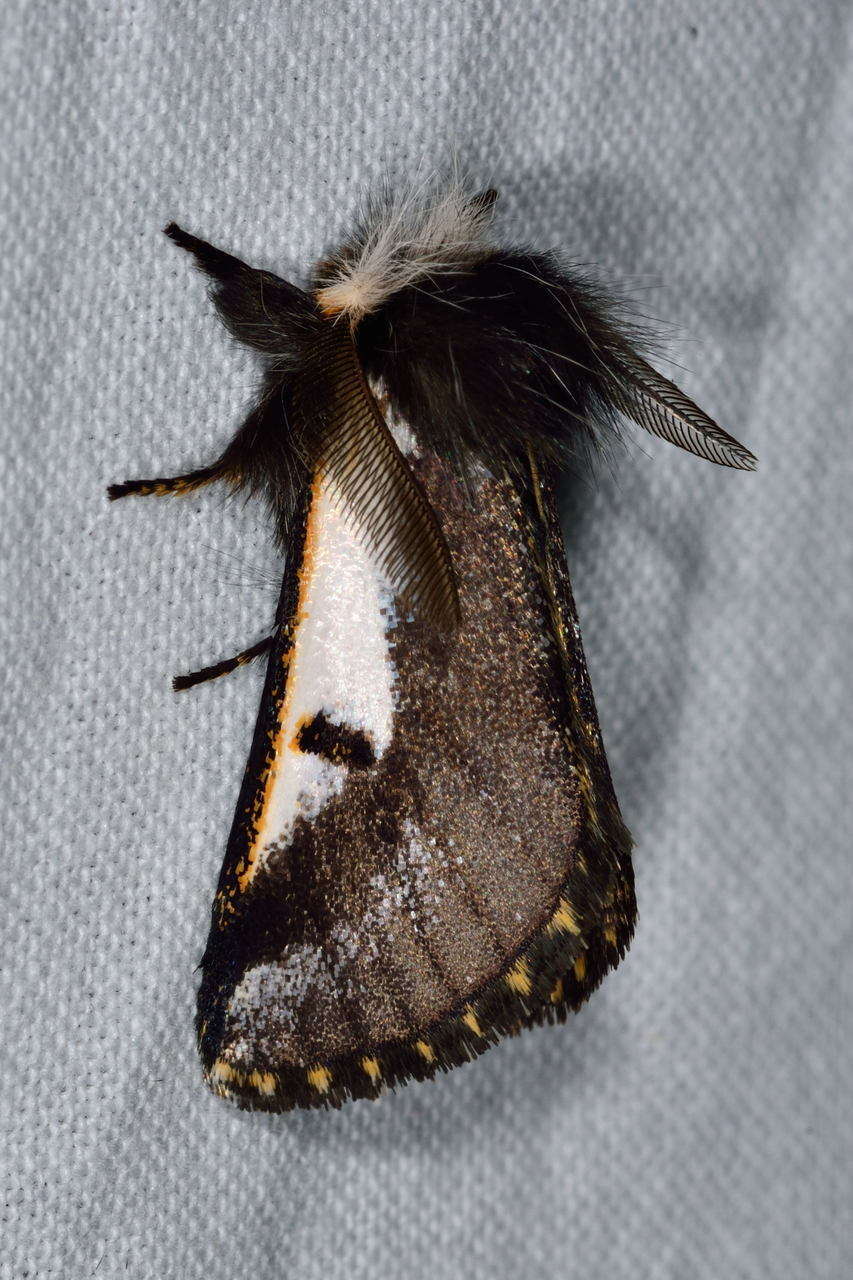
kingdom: Animalia
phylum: Arthropoda
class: Insecta
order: Lepidoptera
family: Notodontidae
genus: Epicoma
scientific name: Epicoma
